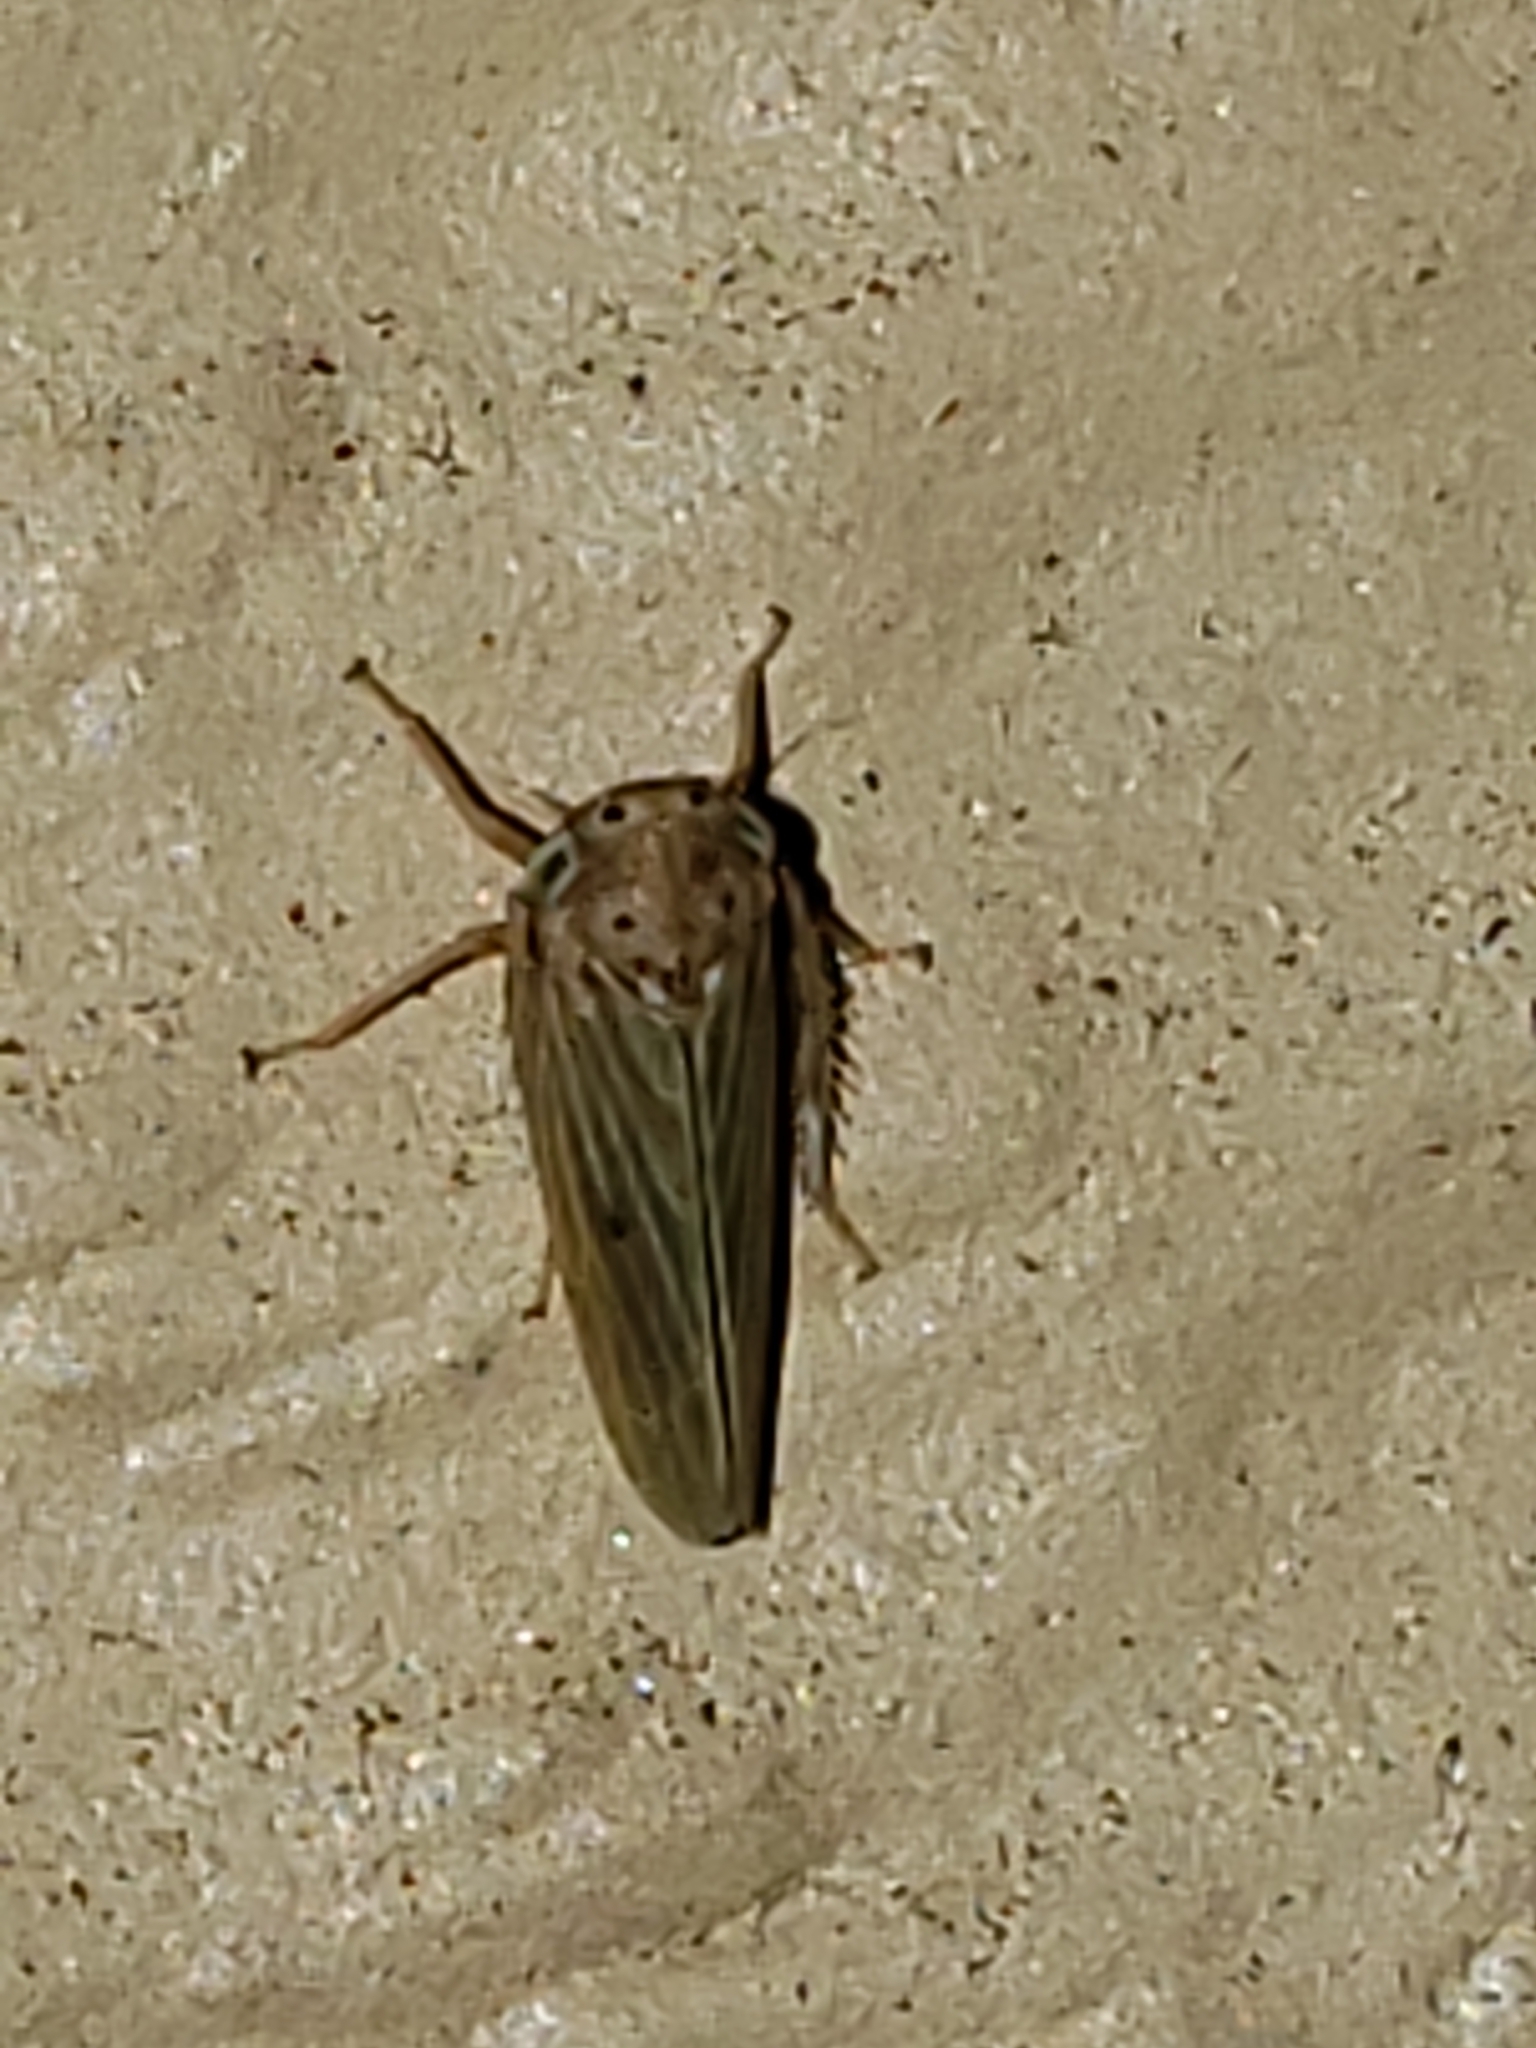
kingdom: Animalia
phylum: Arthropoda
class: Insecta
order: Hemiptera
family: Cicadellidae
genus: Agallia
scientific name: Agallia constricta
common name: The constricted leafhopper
